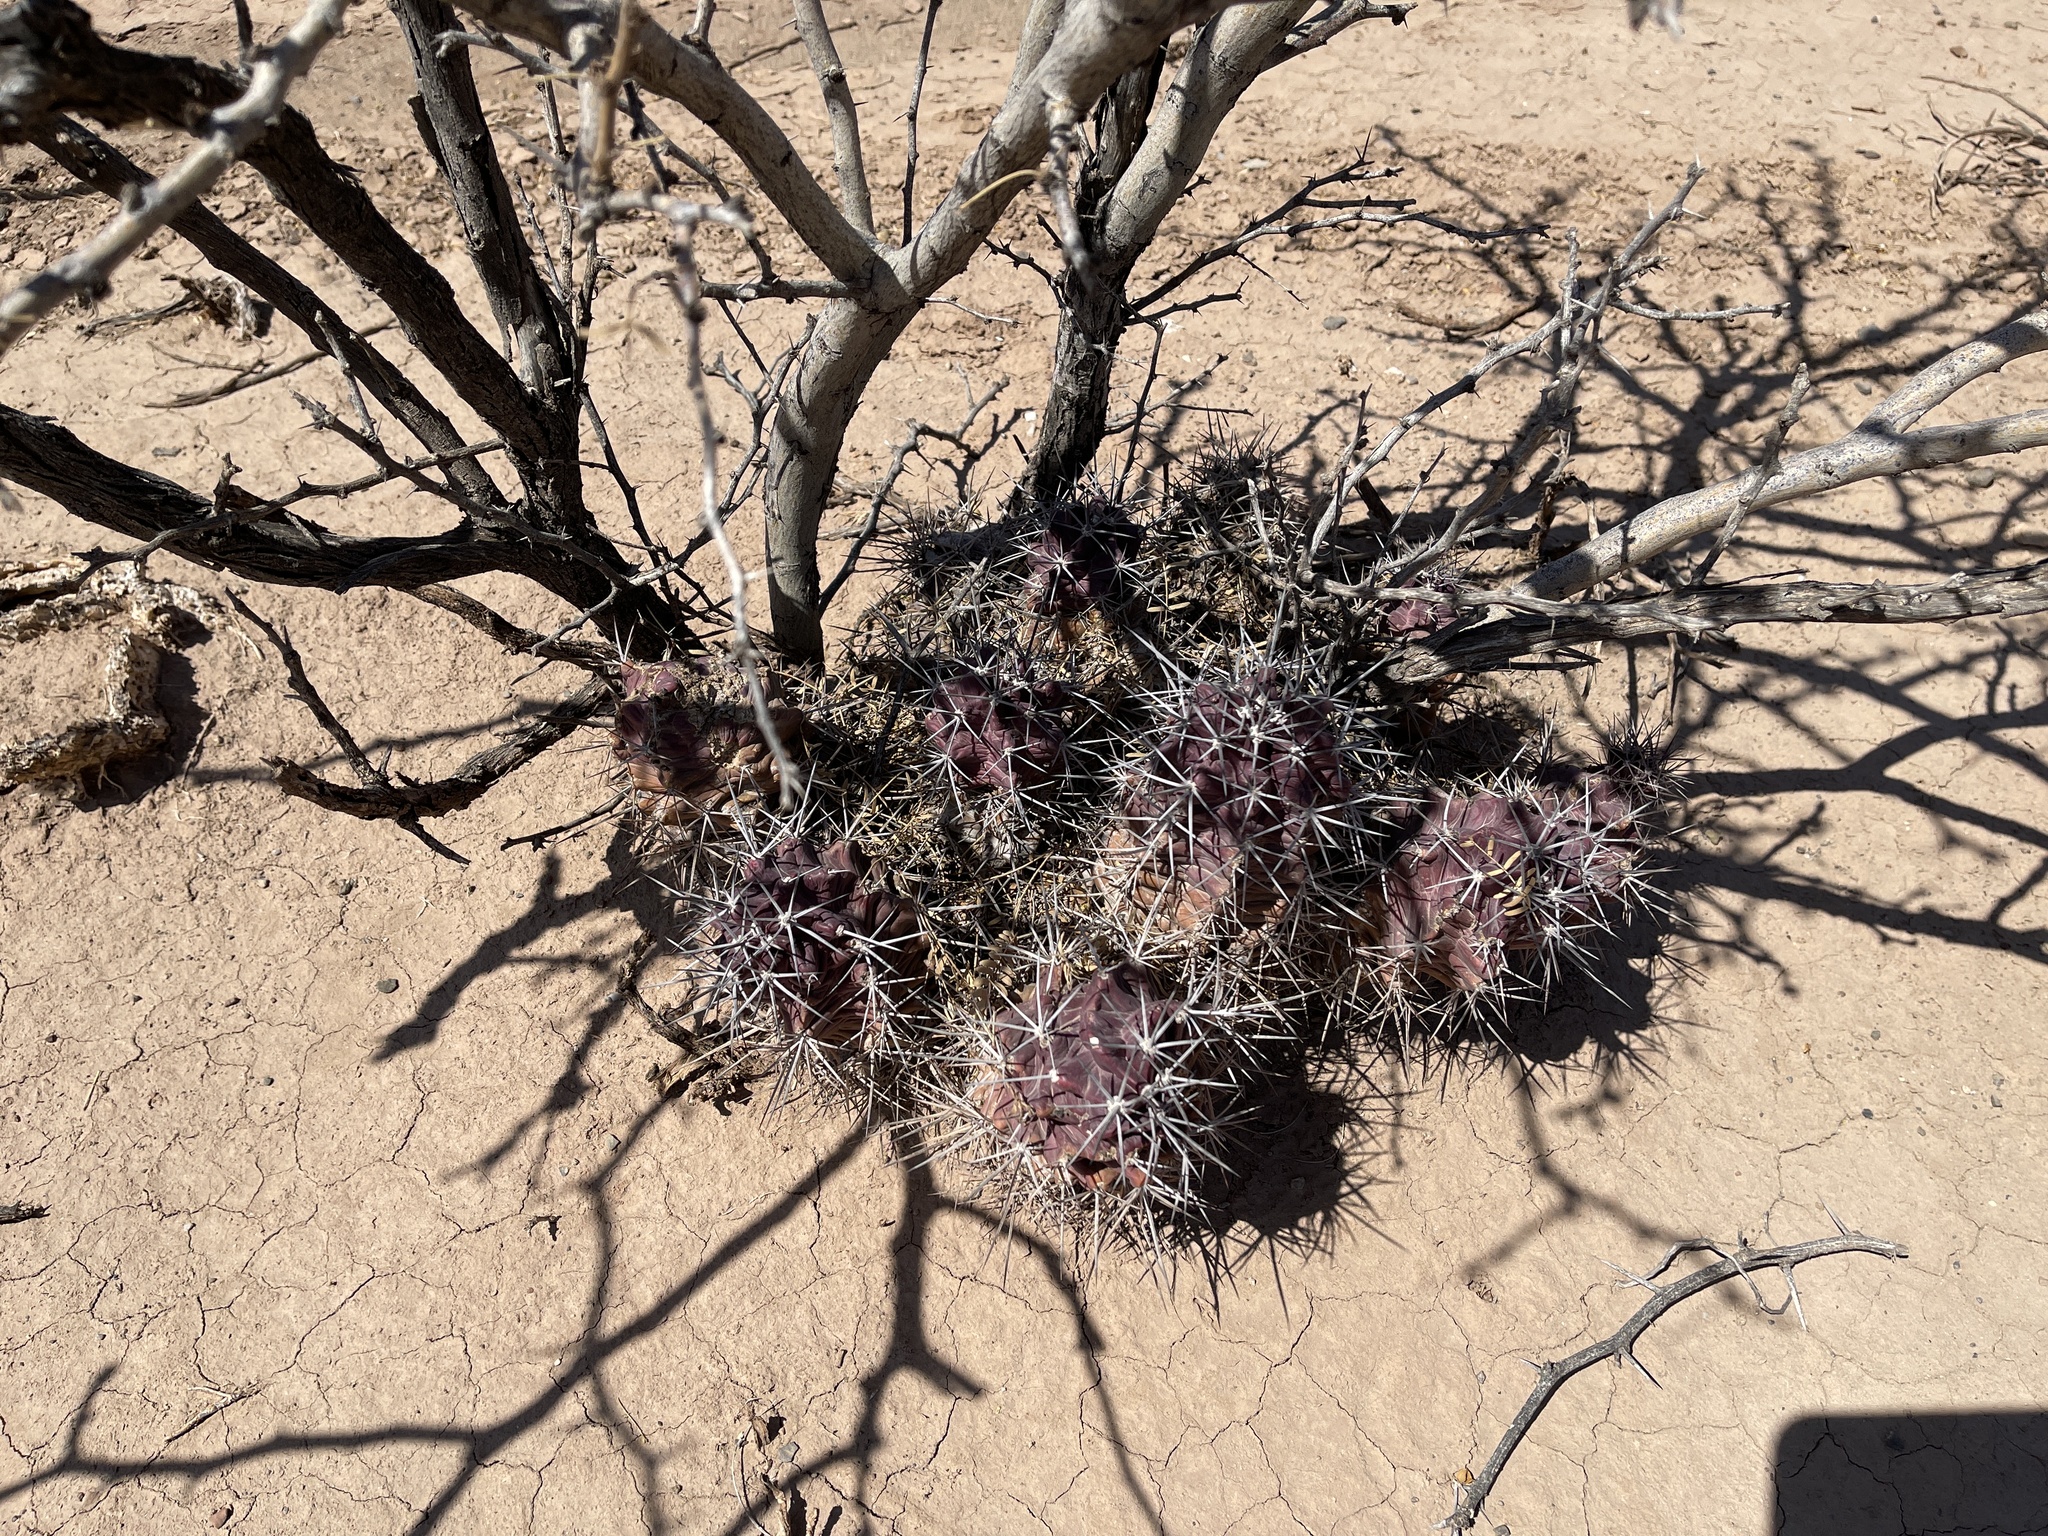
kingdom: Plantae
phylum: Tracheophyta
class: Magnoliopsida
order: Caryophyllales
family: Cactaceae
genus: Echinocereus
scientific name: Echinocereus triglochidiatus
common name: Claretcup hedgehog
